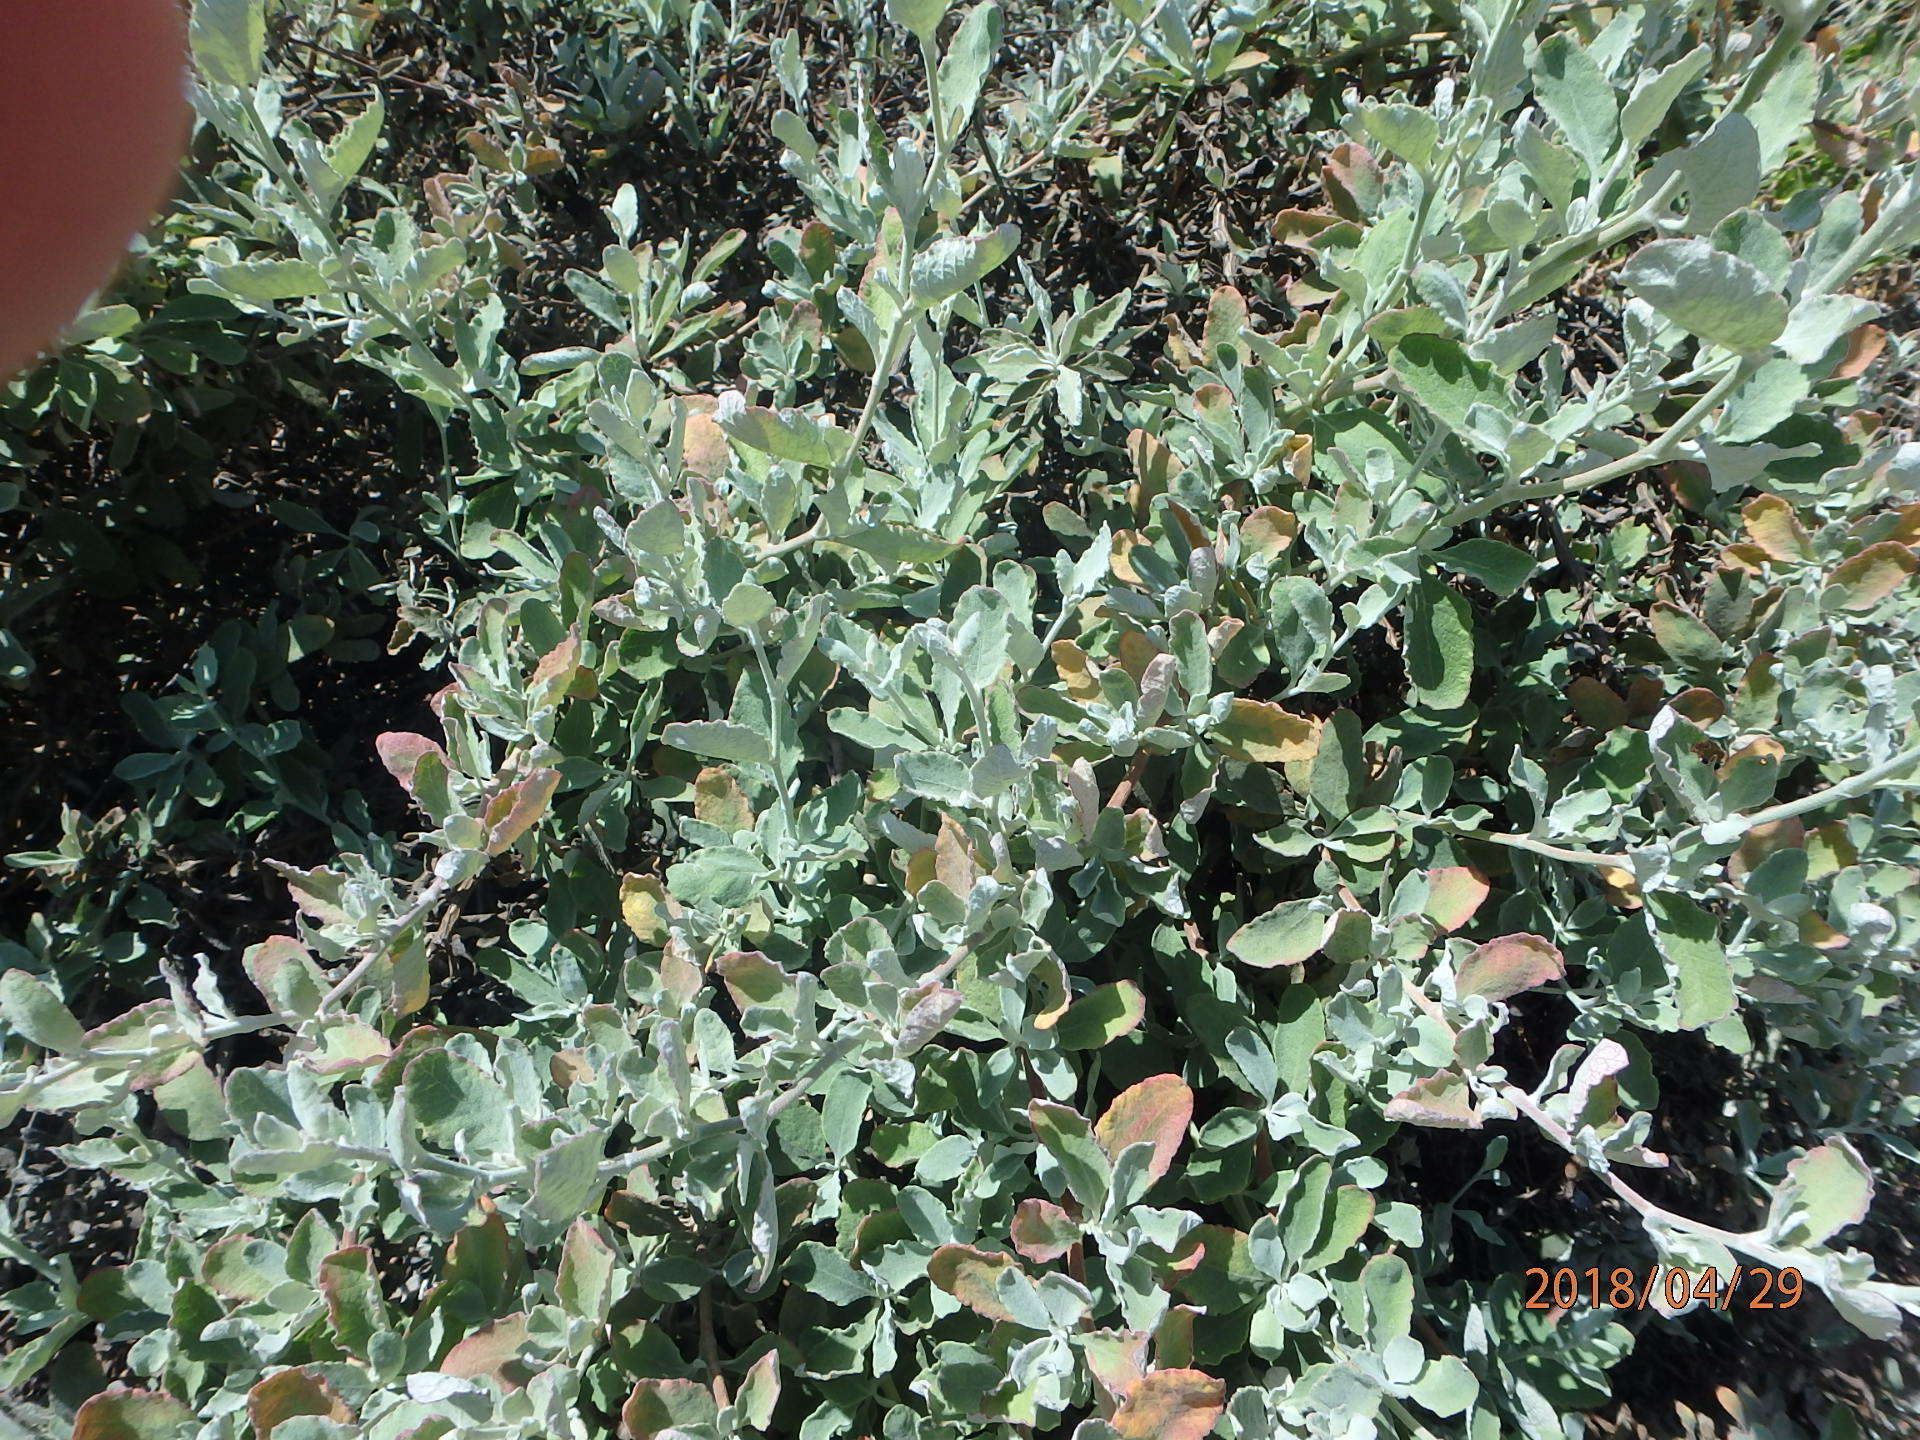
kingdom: Plantae
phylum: Tracheophyta
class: Magnoliopsida
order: Caryophyllales
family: Polygonaceae
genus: Eriogonum
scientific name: Eriogonum cinereum
